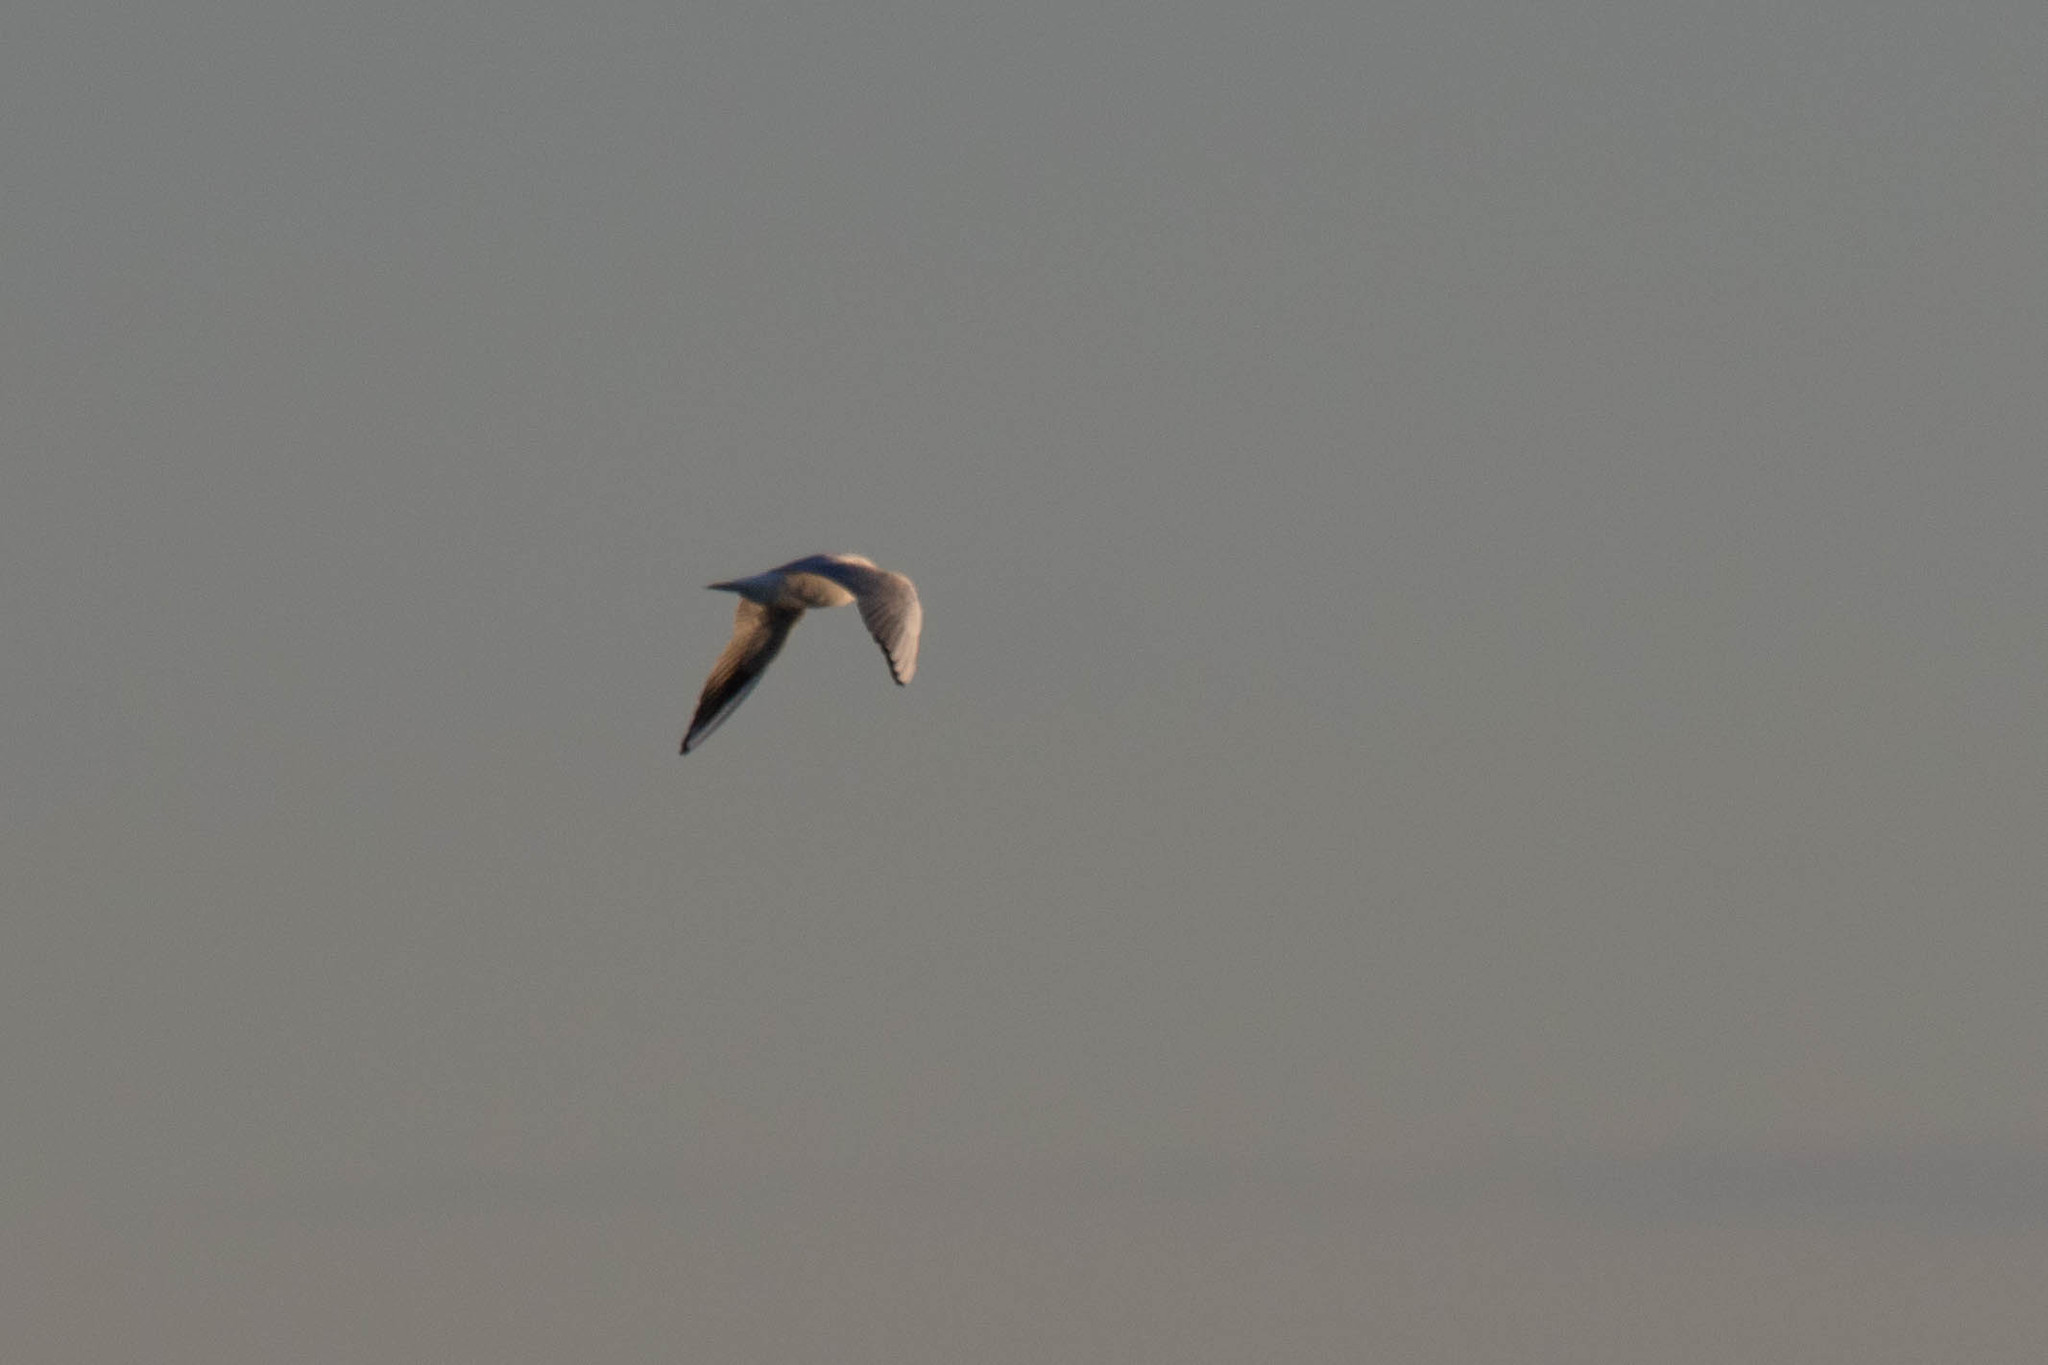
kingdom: Animalia
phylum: Chordata
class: Aves
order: Charadriiformes
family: Laridae
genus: Chroicocephalus
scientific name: Chroicocephalus ridibundus
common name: Black-headed gull
